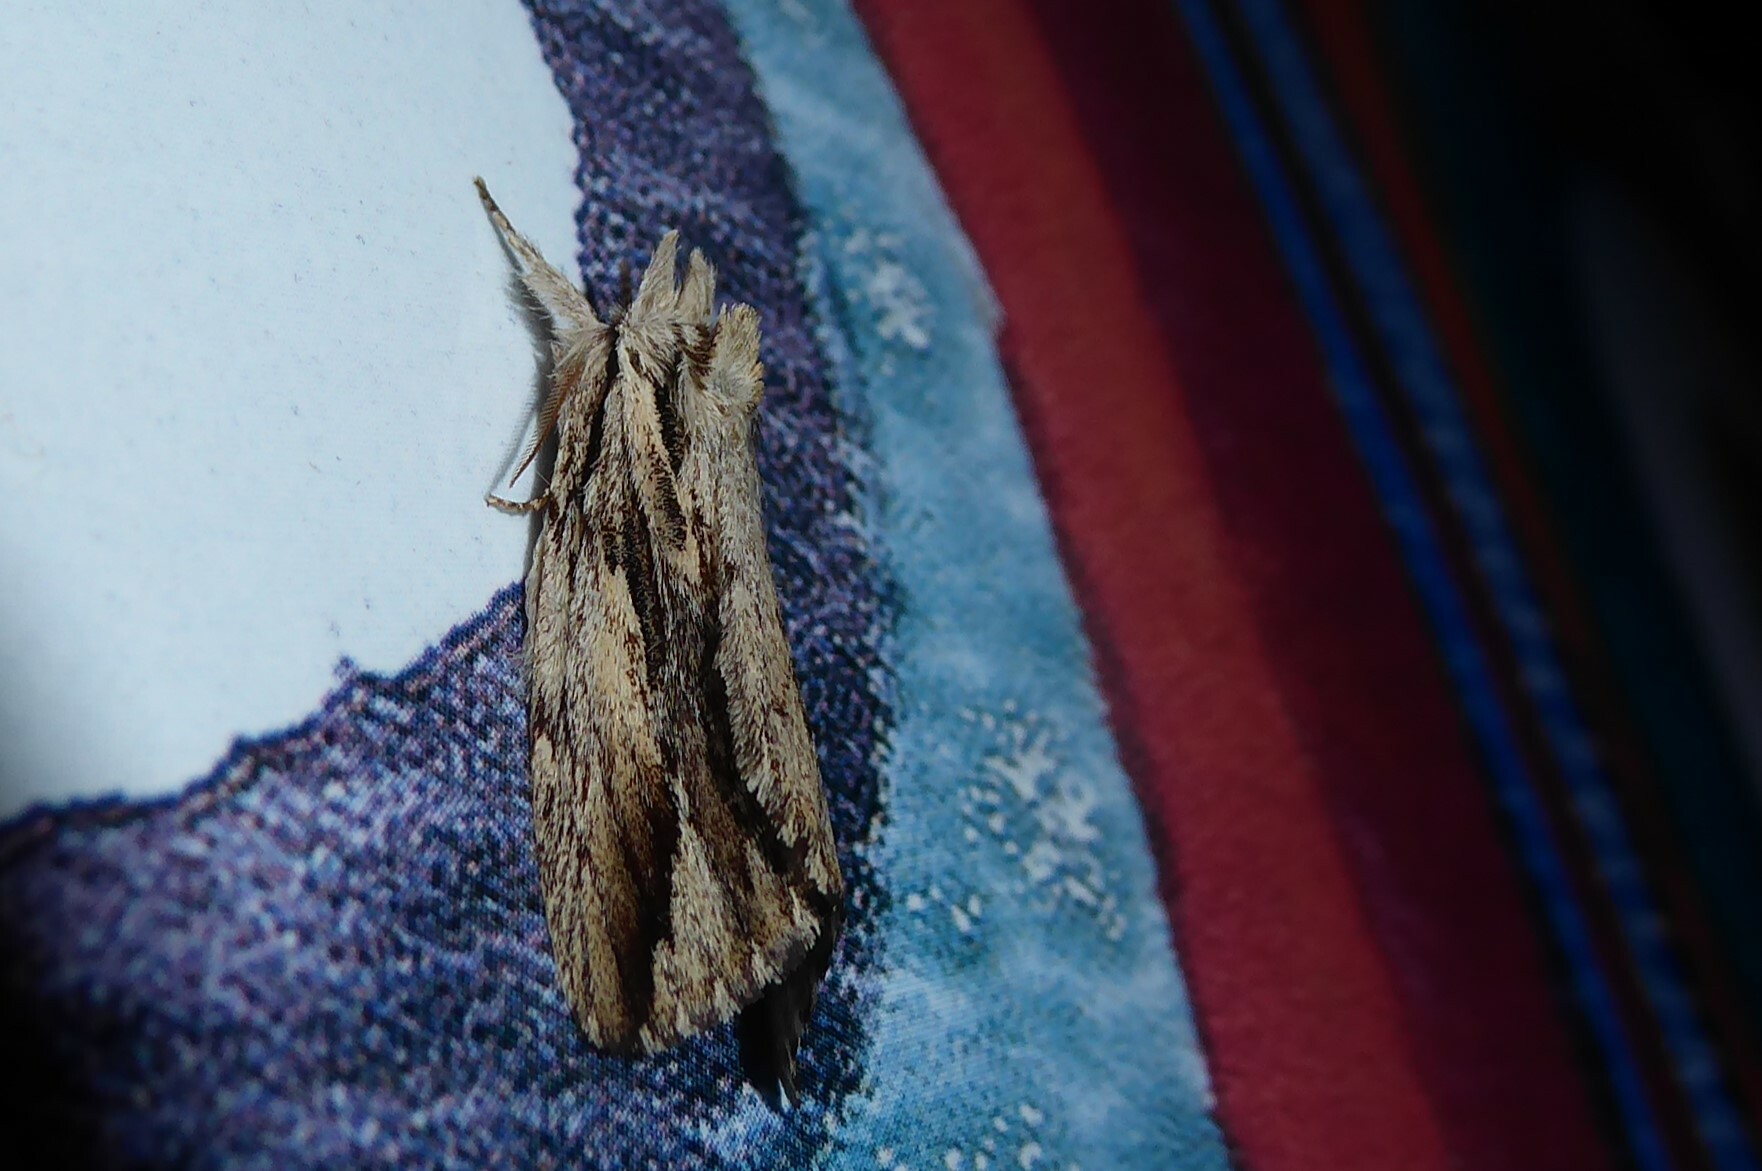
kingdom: Animalia
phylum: Arthropoda
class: Insecta
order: Lepidoptera
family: Notodontidae
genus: Ecnomodes
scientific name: Ecnomodes sagittaria
